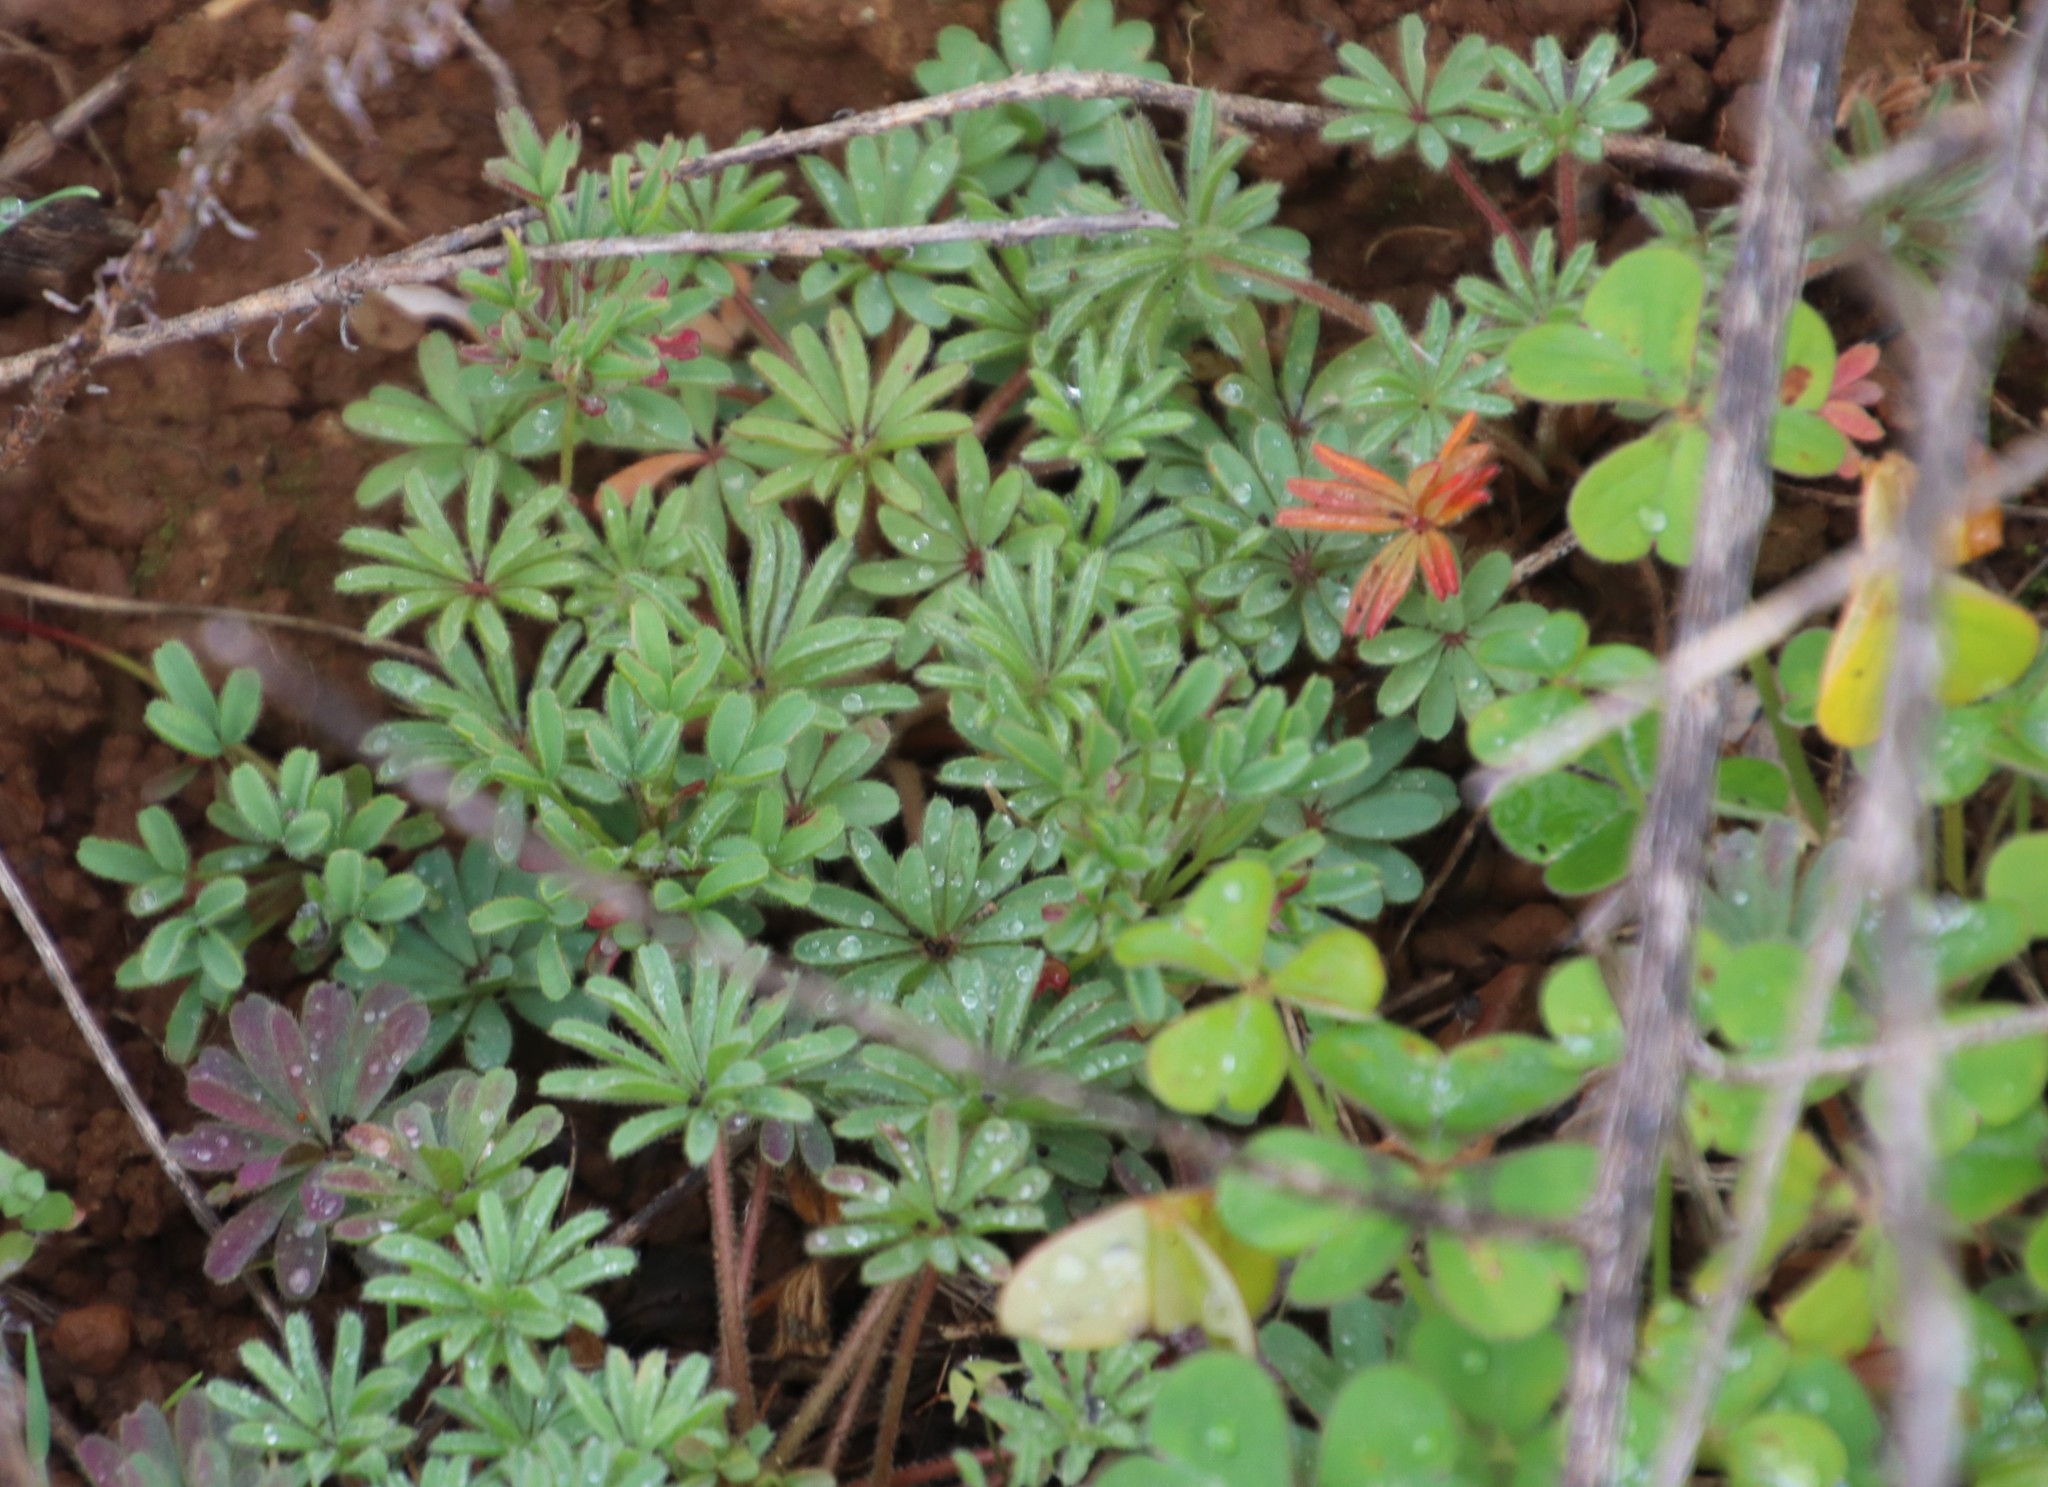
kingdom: Plantae
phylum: Tracheophyta
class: Magnoliopsida
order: Oxalidales
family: Oxalidaceae
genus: Oxalis
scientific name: Oxalis tomentosa
